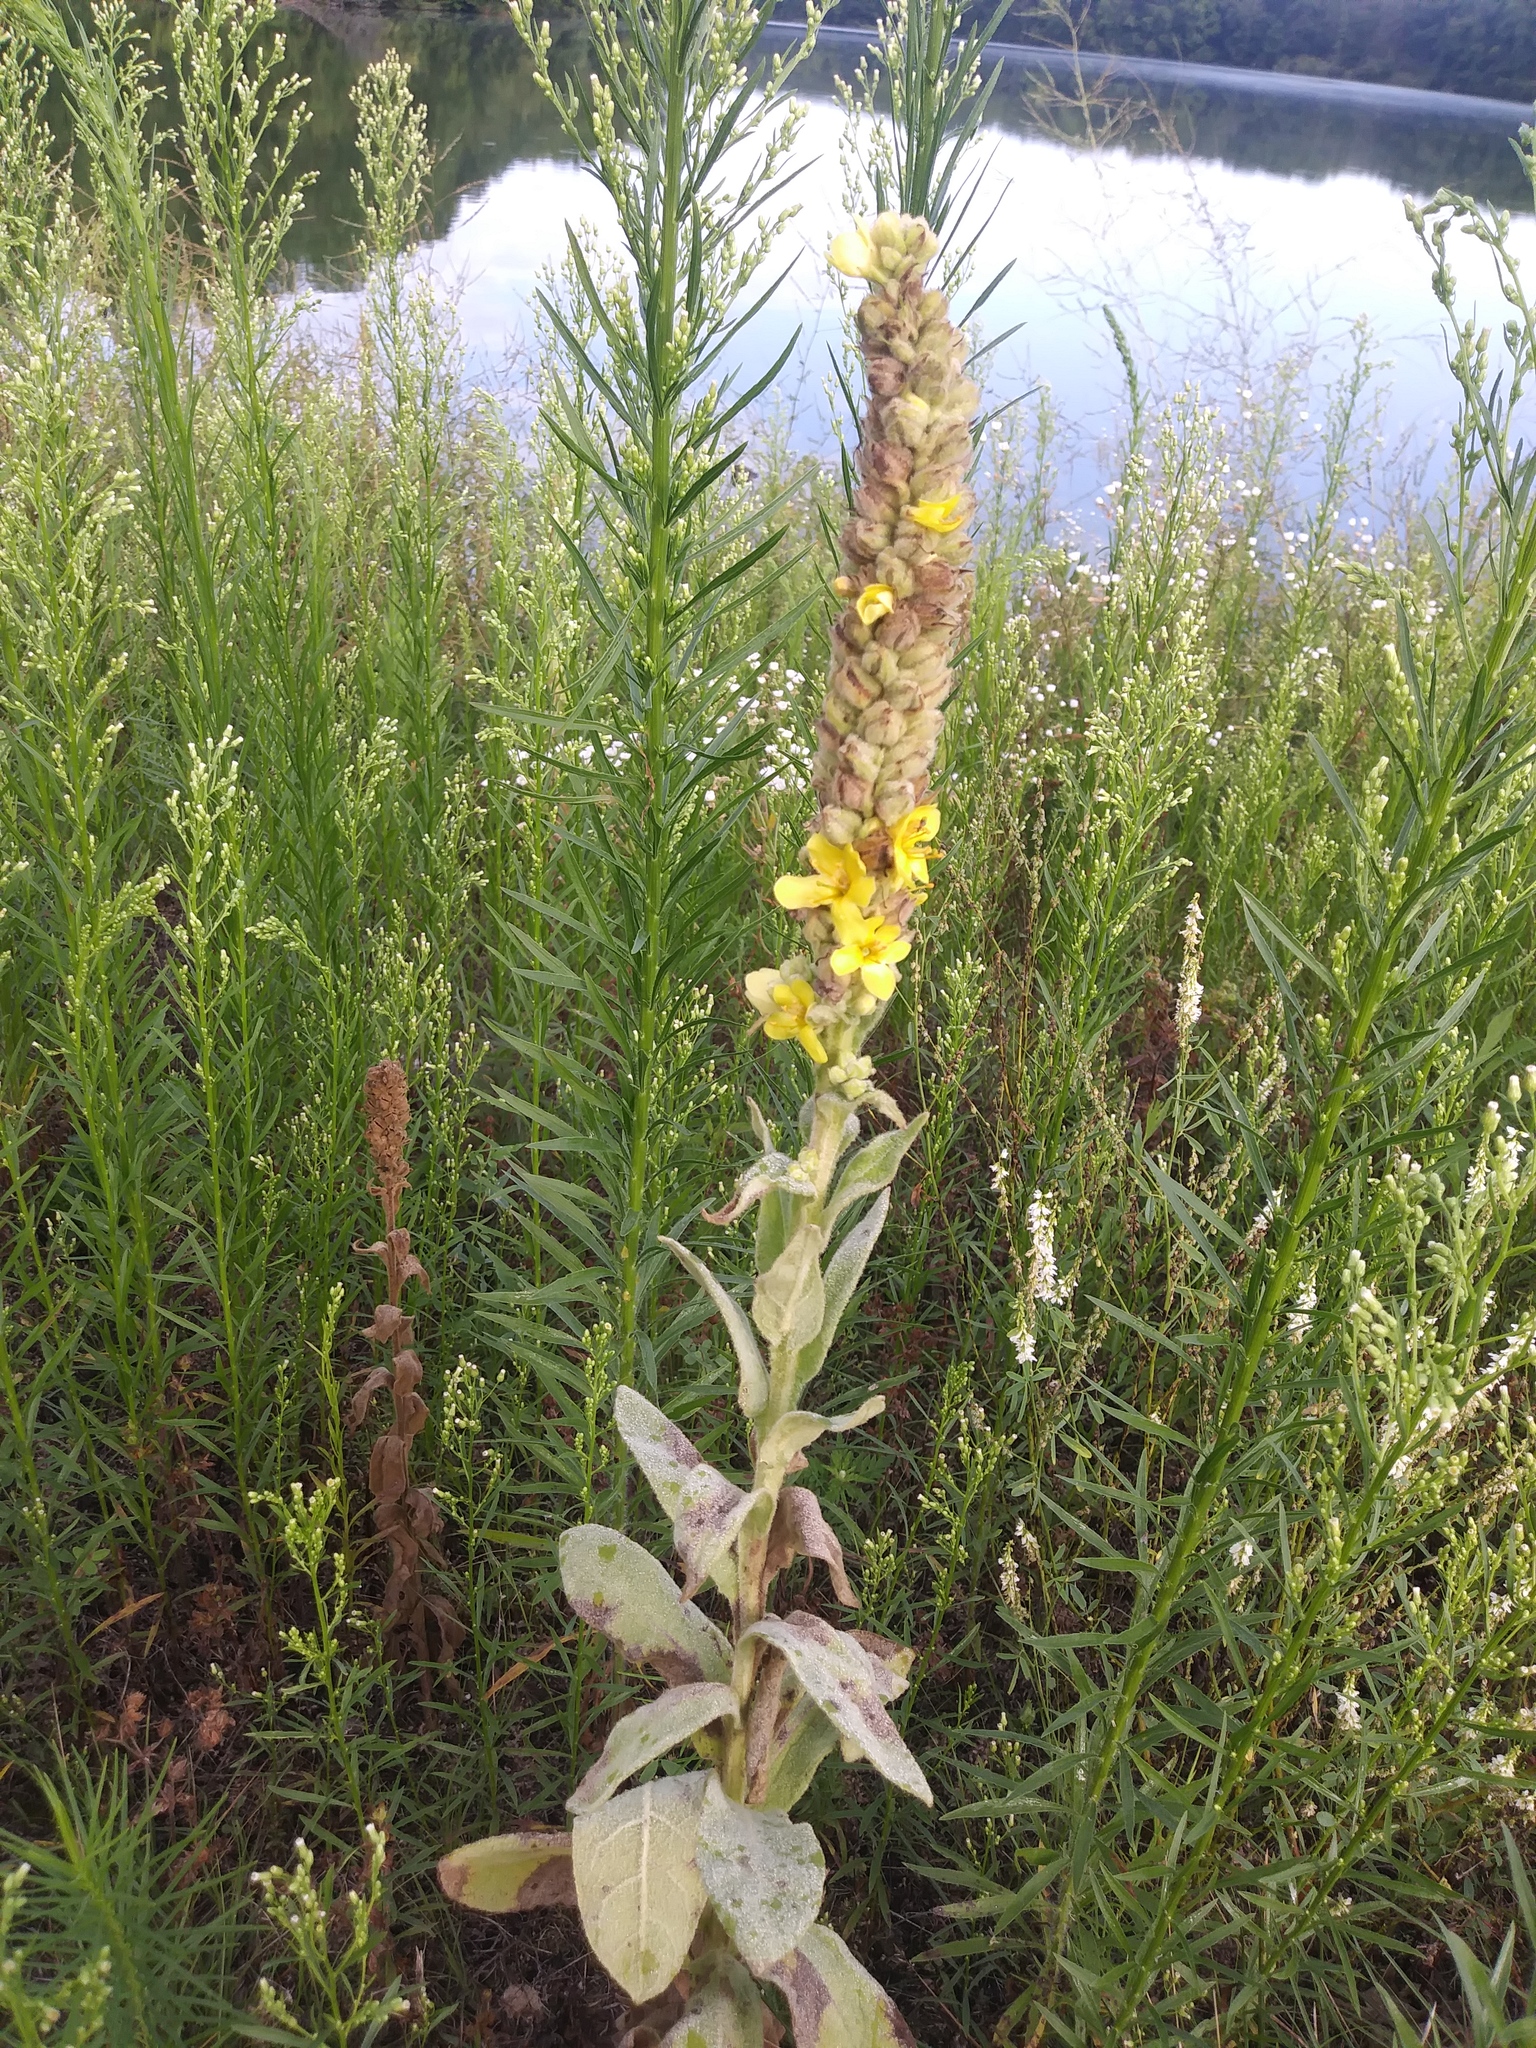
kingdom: Plantae
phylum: Tracheophyta
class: Magnoliopsida
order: Lamiales
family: Scrophulariaceae
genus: Verbascum
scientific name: Verbascum thapsus
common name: Common mullein
